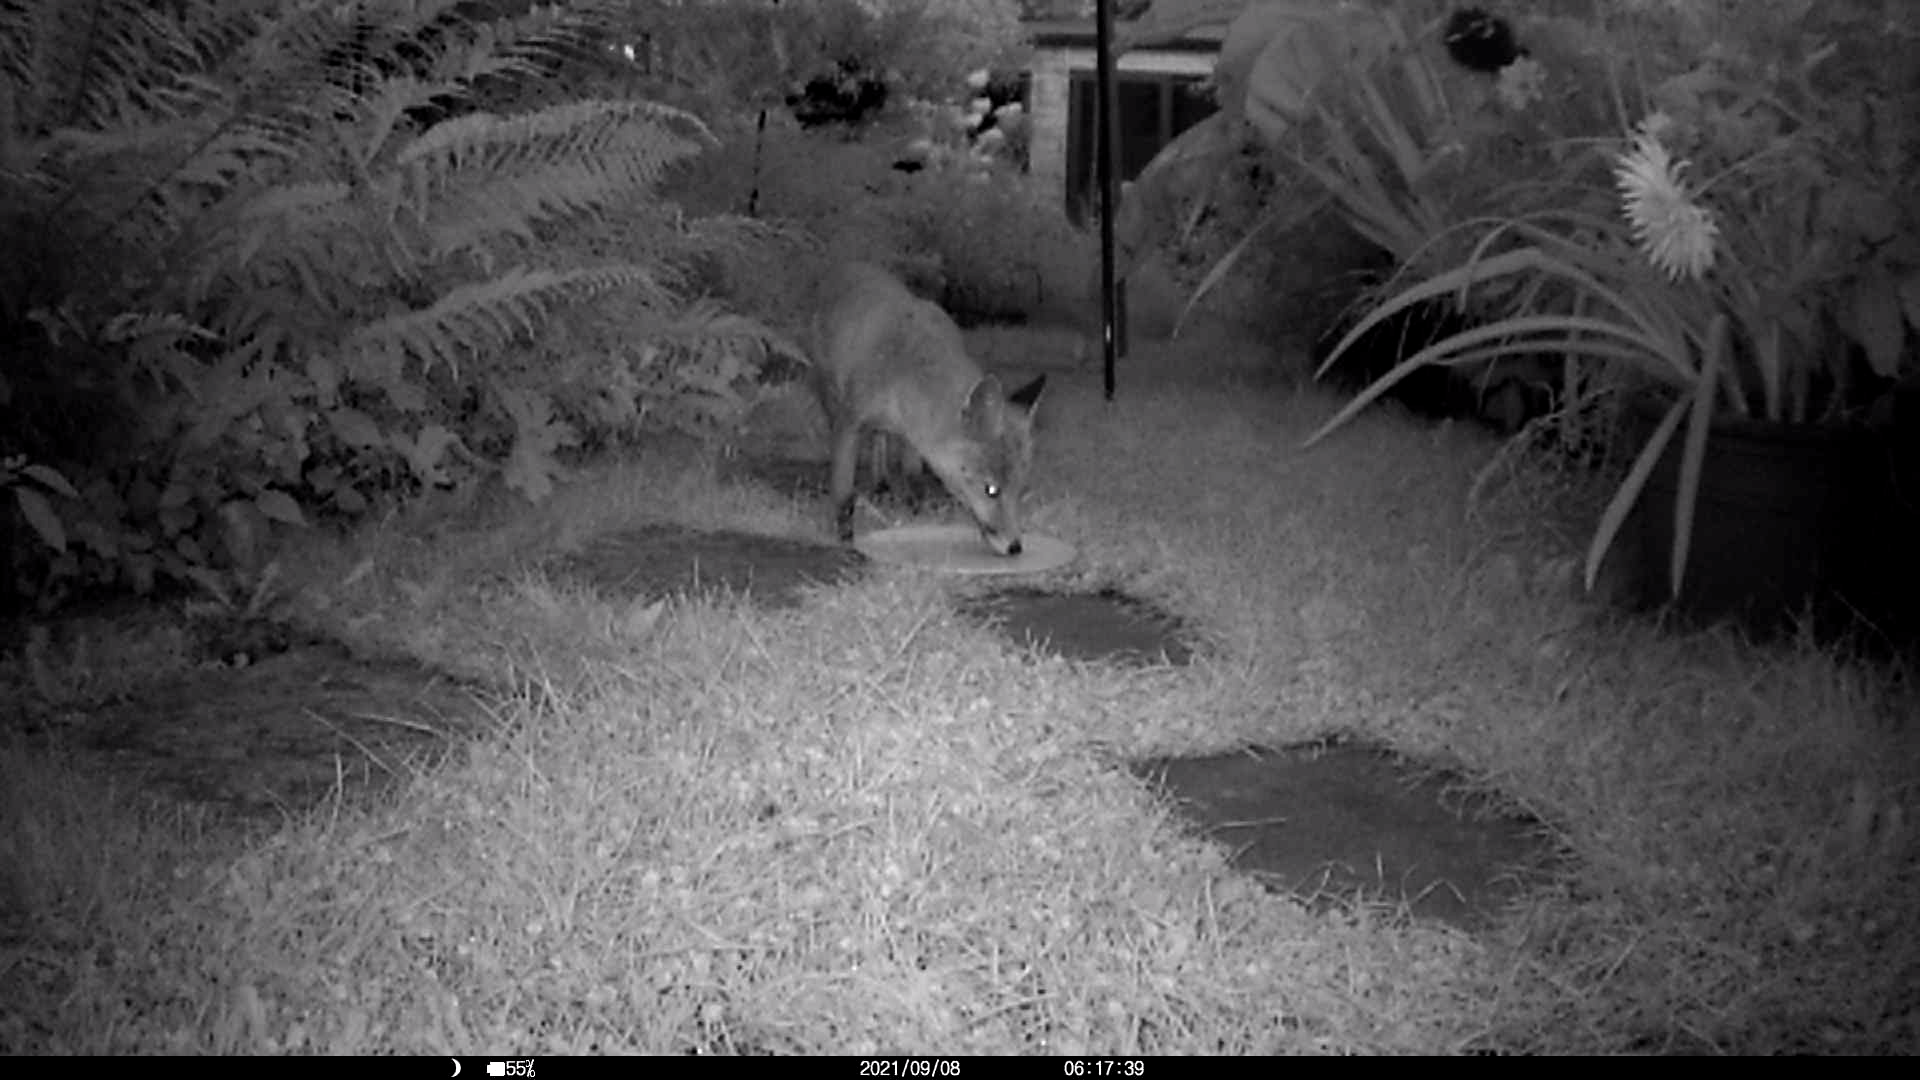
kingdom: Animalia
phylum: Chordata
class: Mammalia
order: Carnivora
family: Canidae
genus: Vulpes
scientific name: Vulpes vulpes
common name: Red fox
